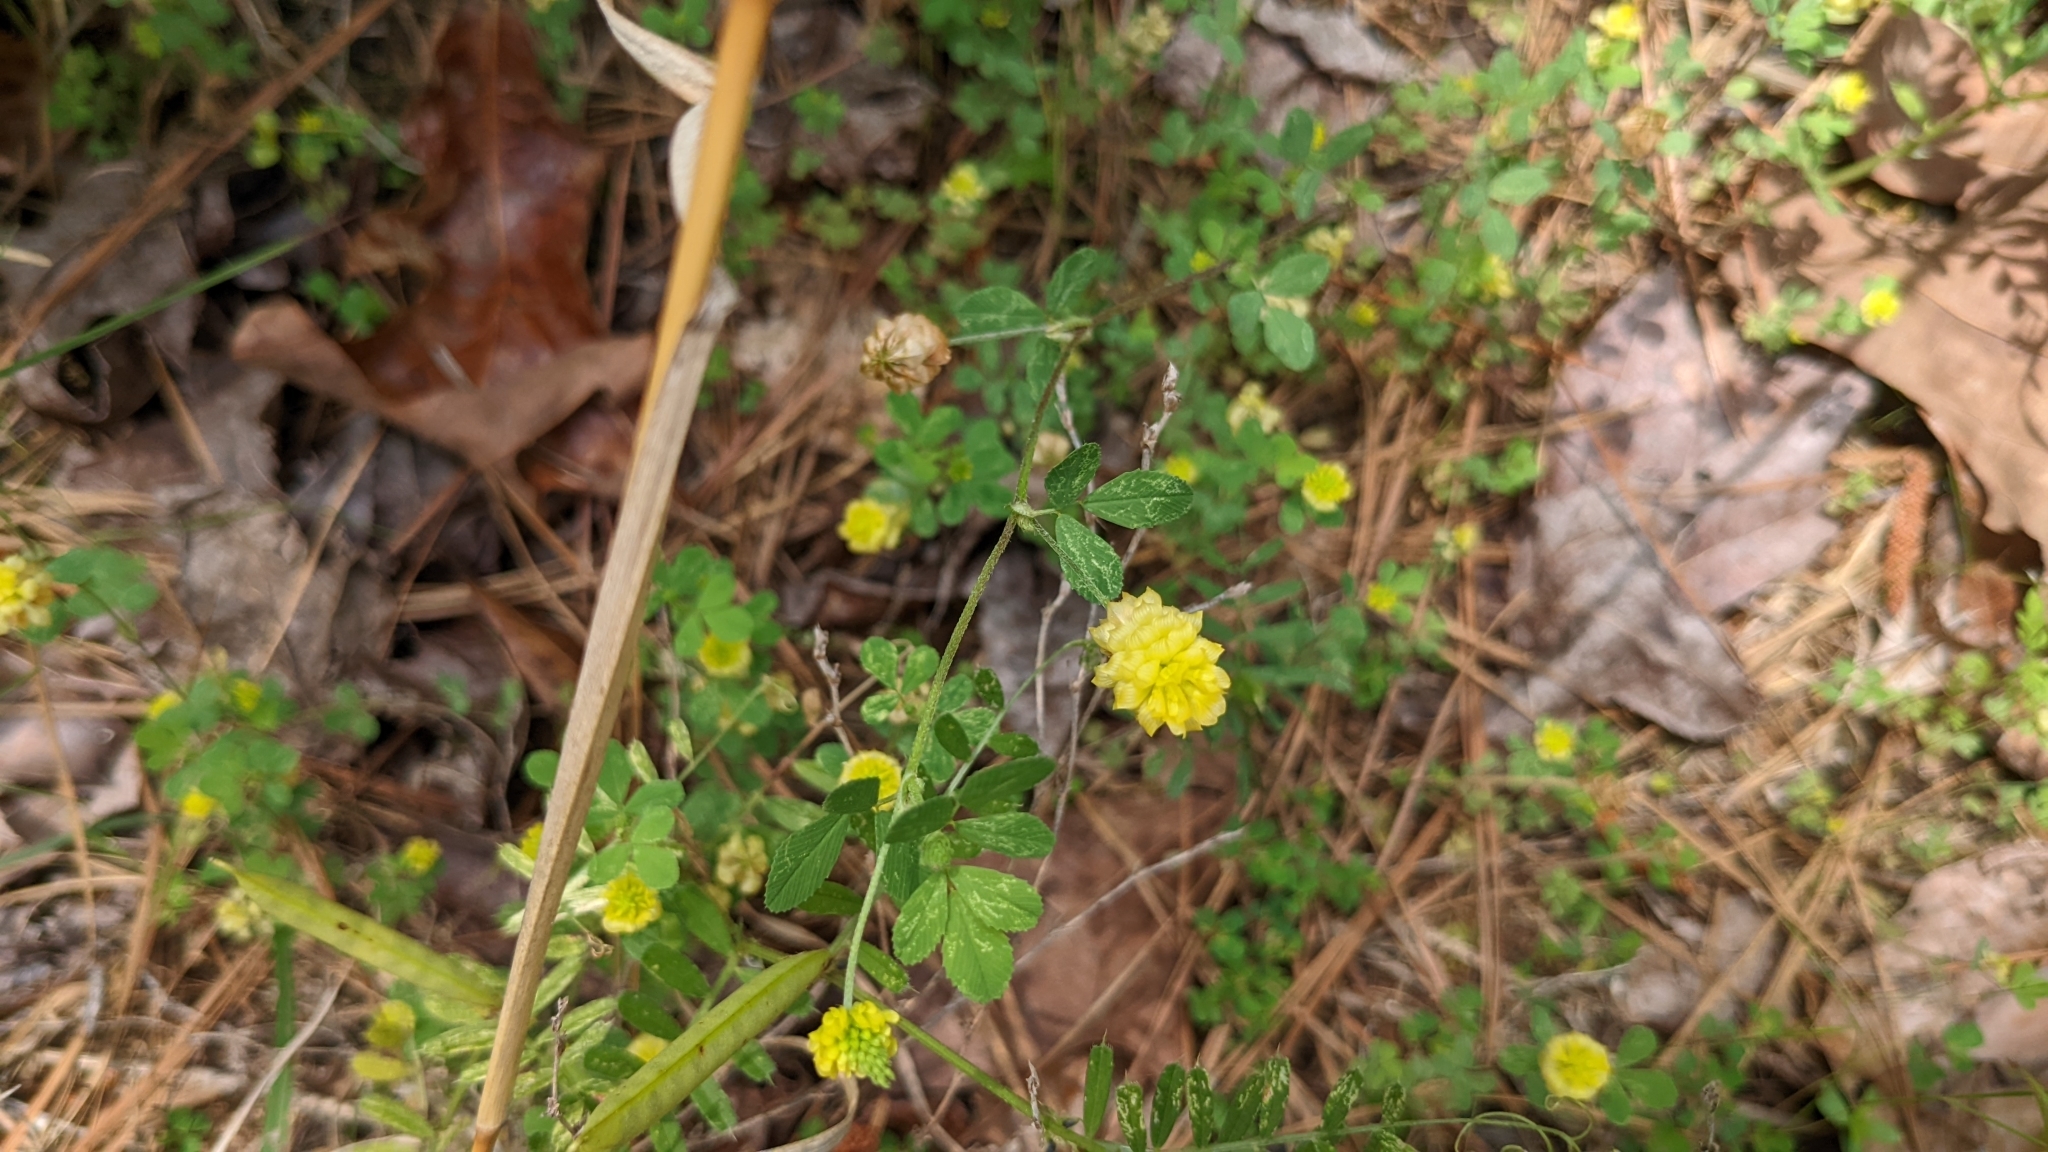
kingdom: Plantae
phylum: Tracheophyta
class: Magnoliopsida
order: Fabales
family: Fabaceae
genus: Trifolium
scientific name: Trifolium campestre
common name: Field clover
